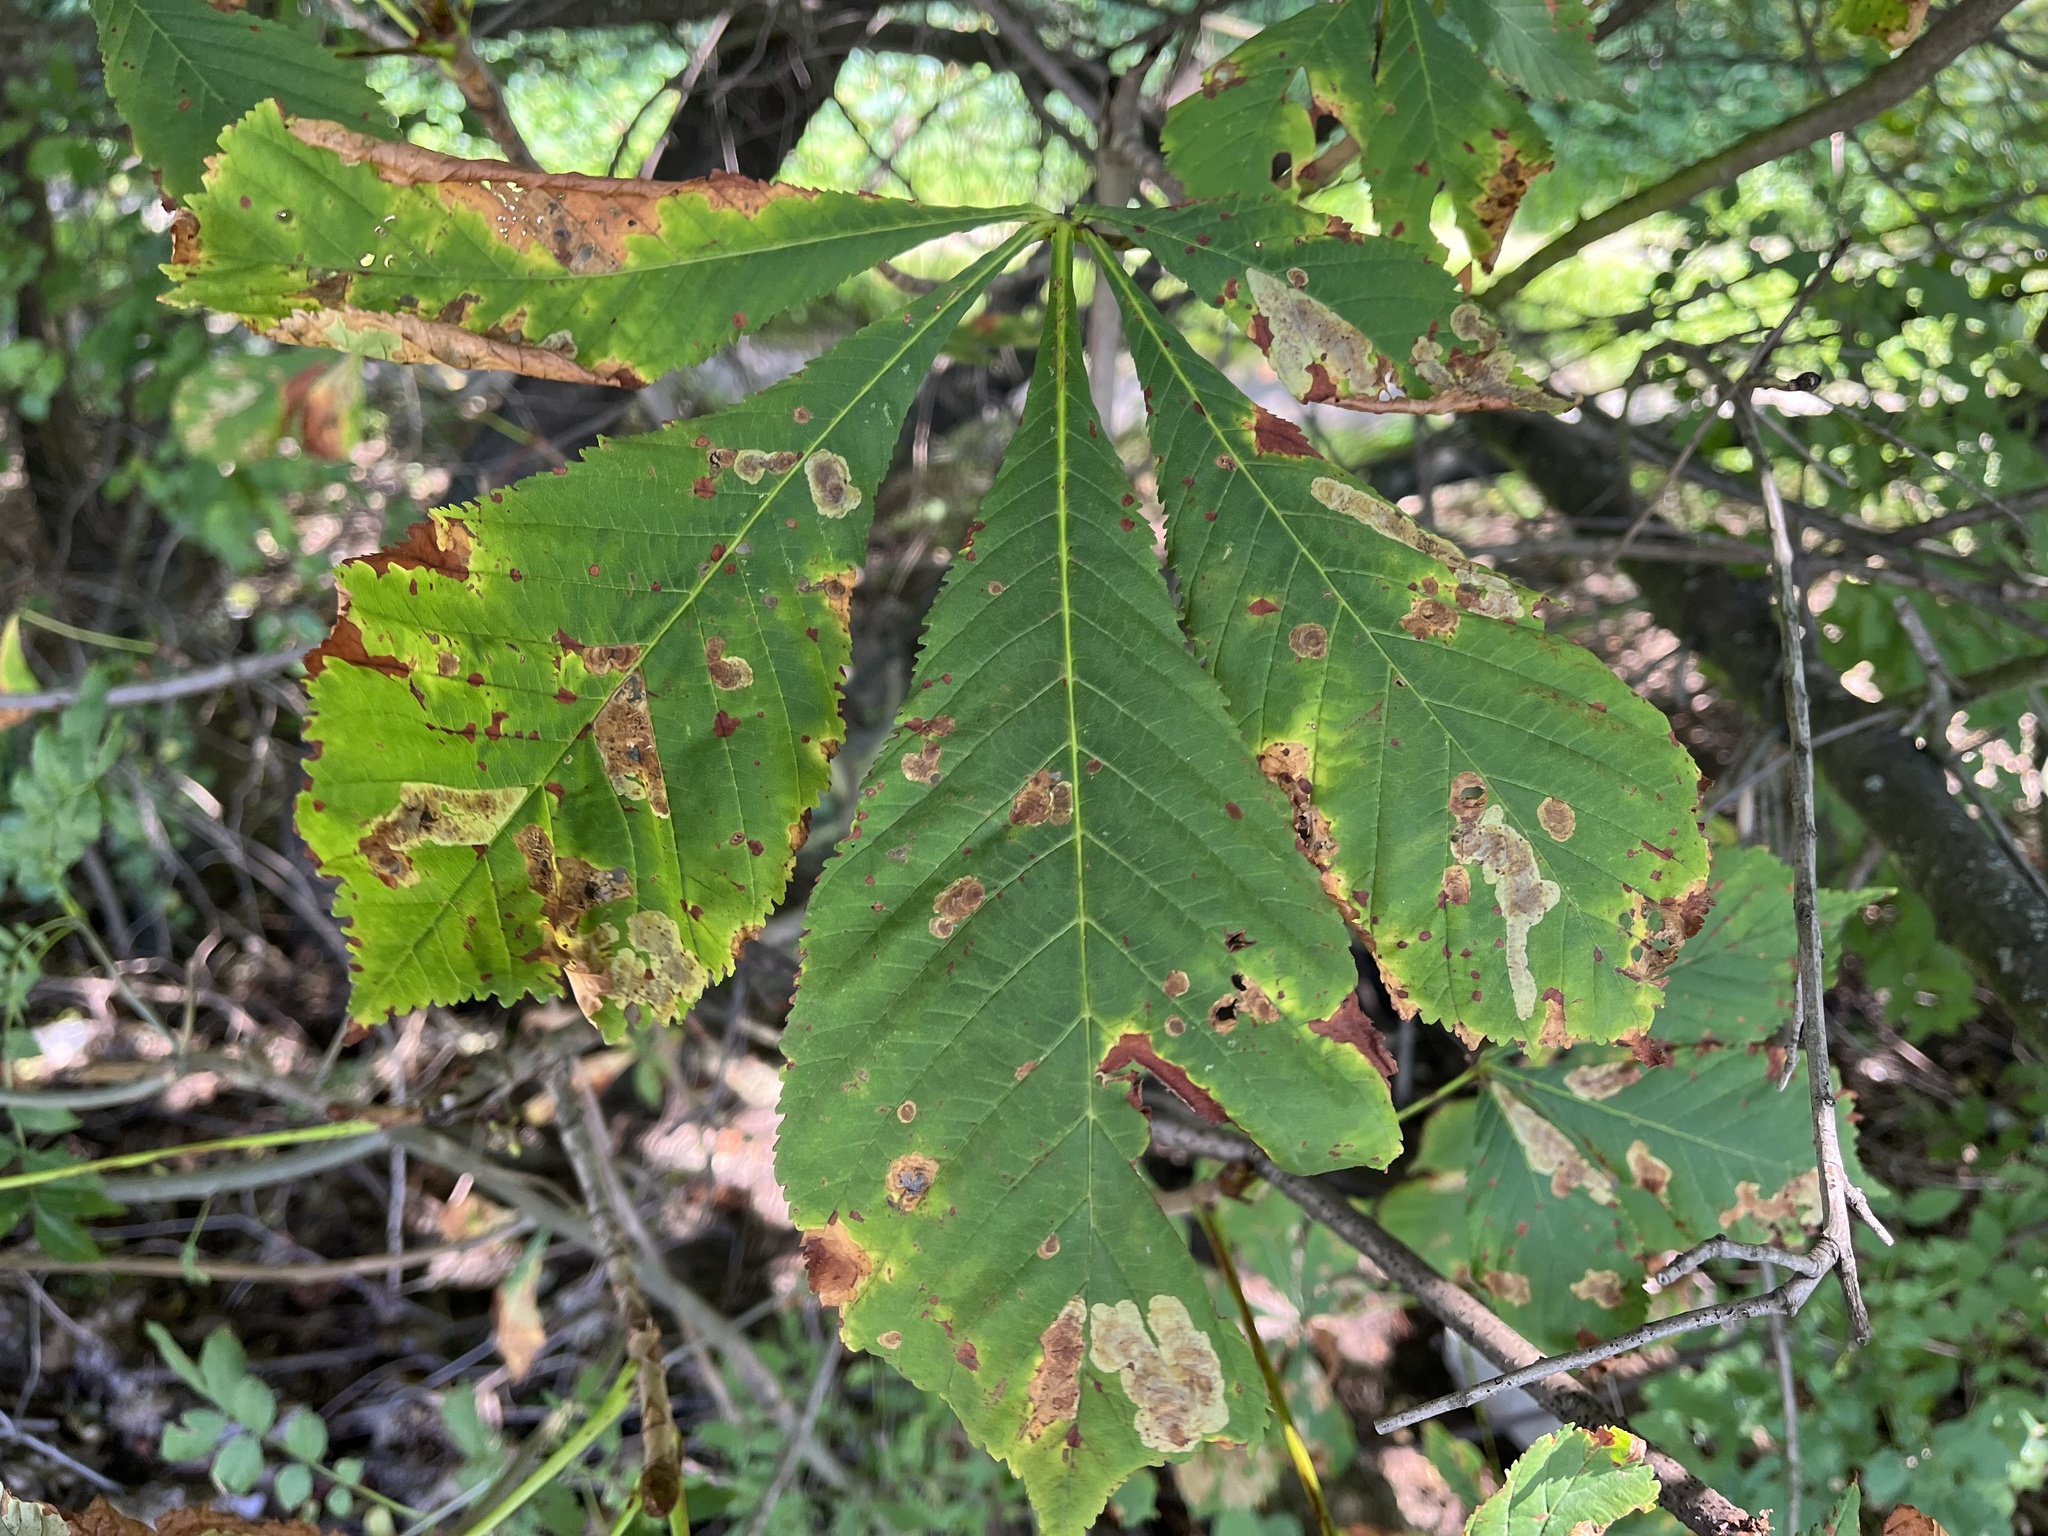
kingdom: Animalia
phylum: Arthropoda
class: Insecta
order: Lepidoptera
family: Gracillariidae
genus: Cameraria
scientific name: Cameraria ohridella
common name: Horse-chestnut leaf-miner
